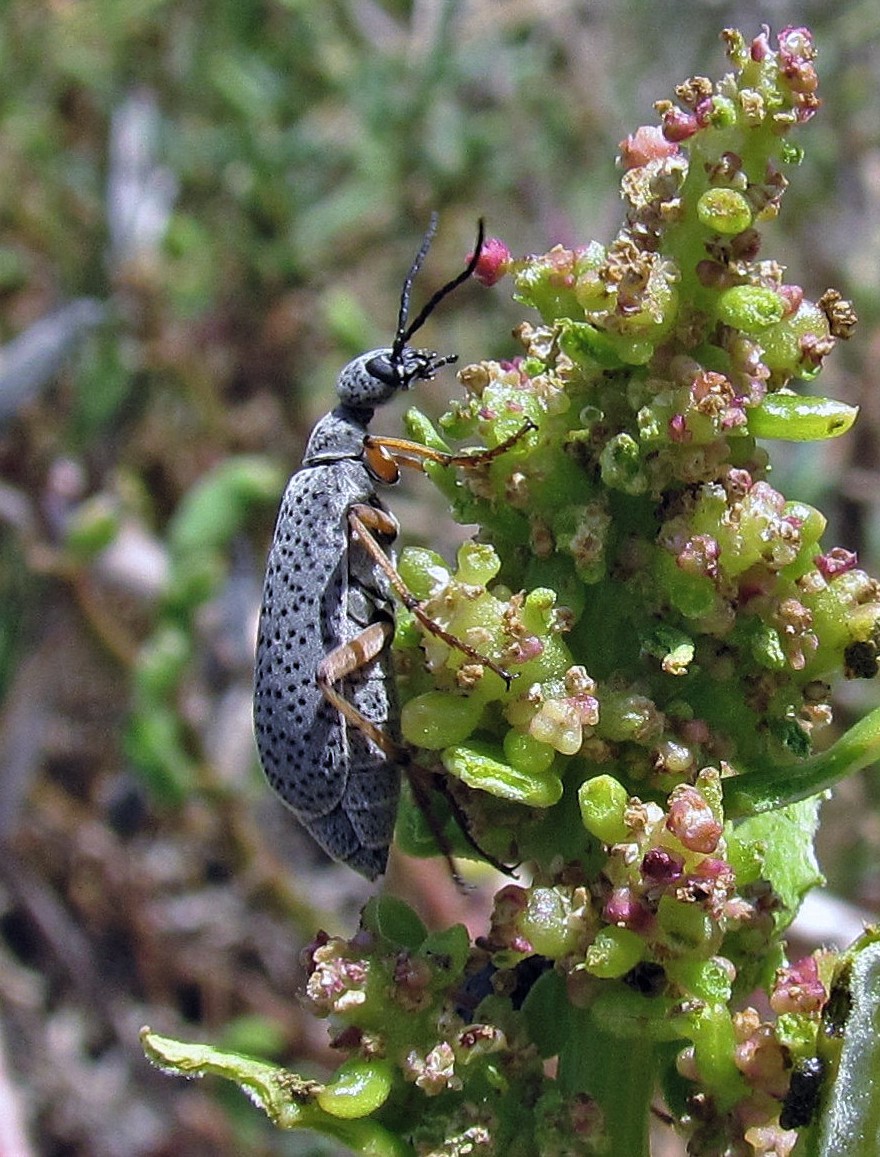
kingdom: Animalia
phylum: Arthropoda
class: Insecta
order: Coleoptera
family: Meloidae
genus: Epicauta
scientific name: Epicauta
